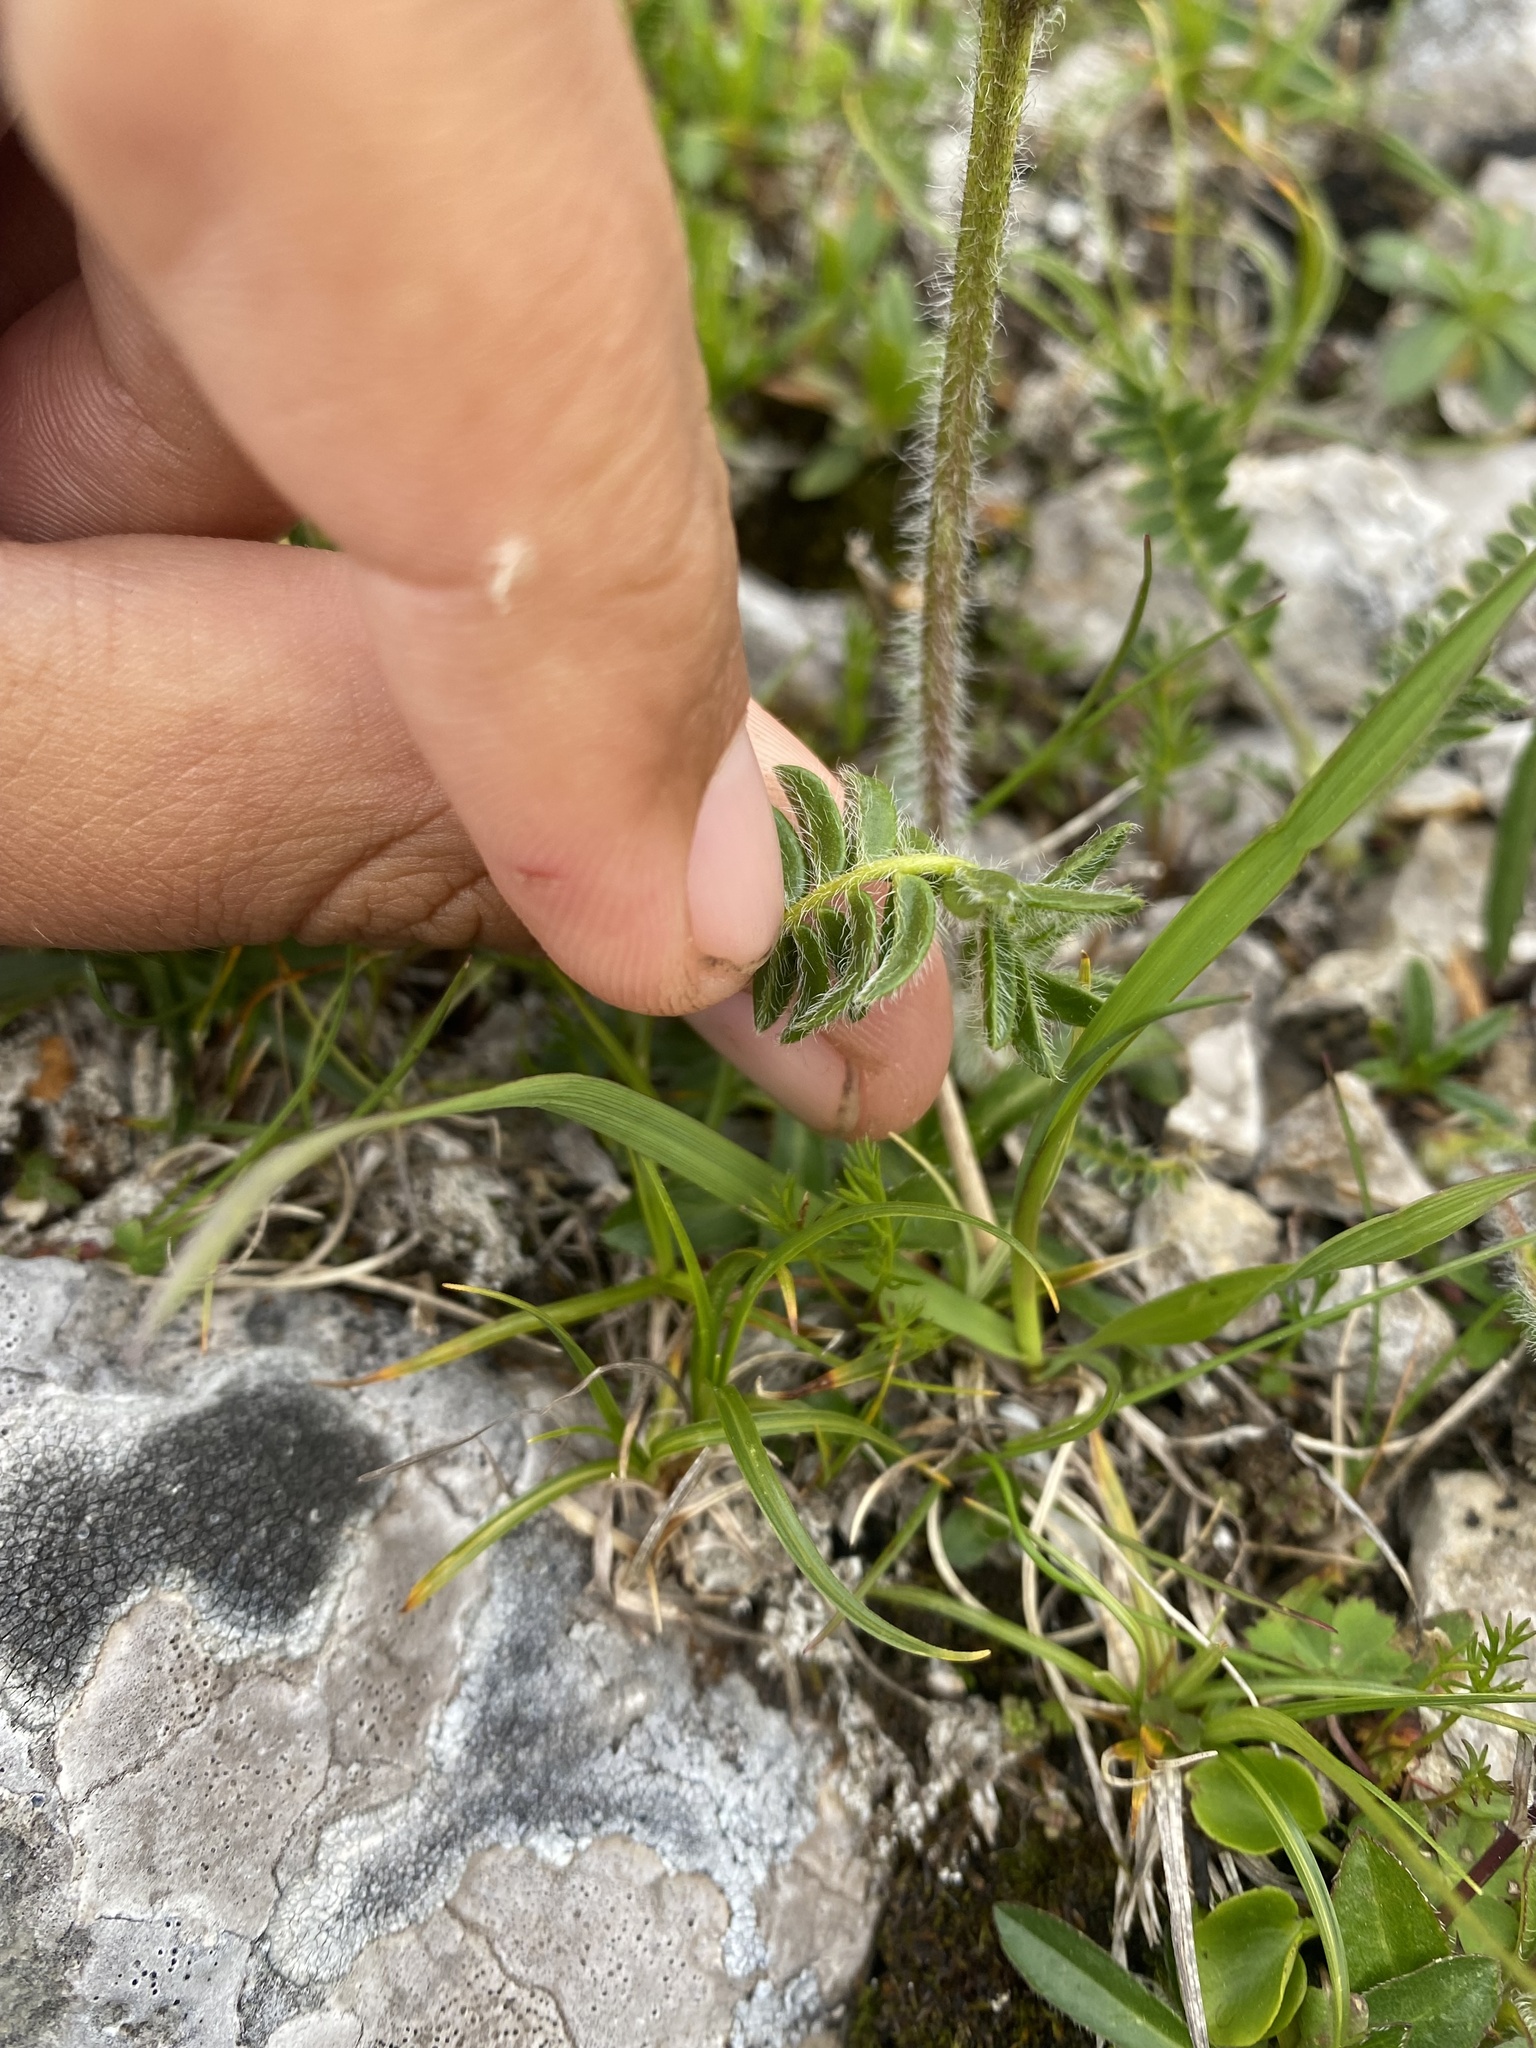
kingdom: Plantae
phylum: Tracheophyta
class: Magnoliopsida
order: Fabales
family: Fabaceae
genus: Oxytropis
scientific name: Oxytropis lazica
